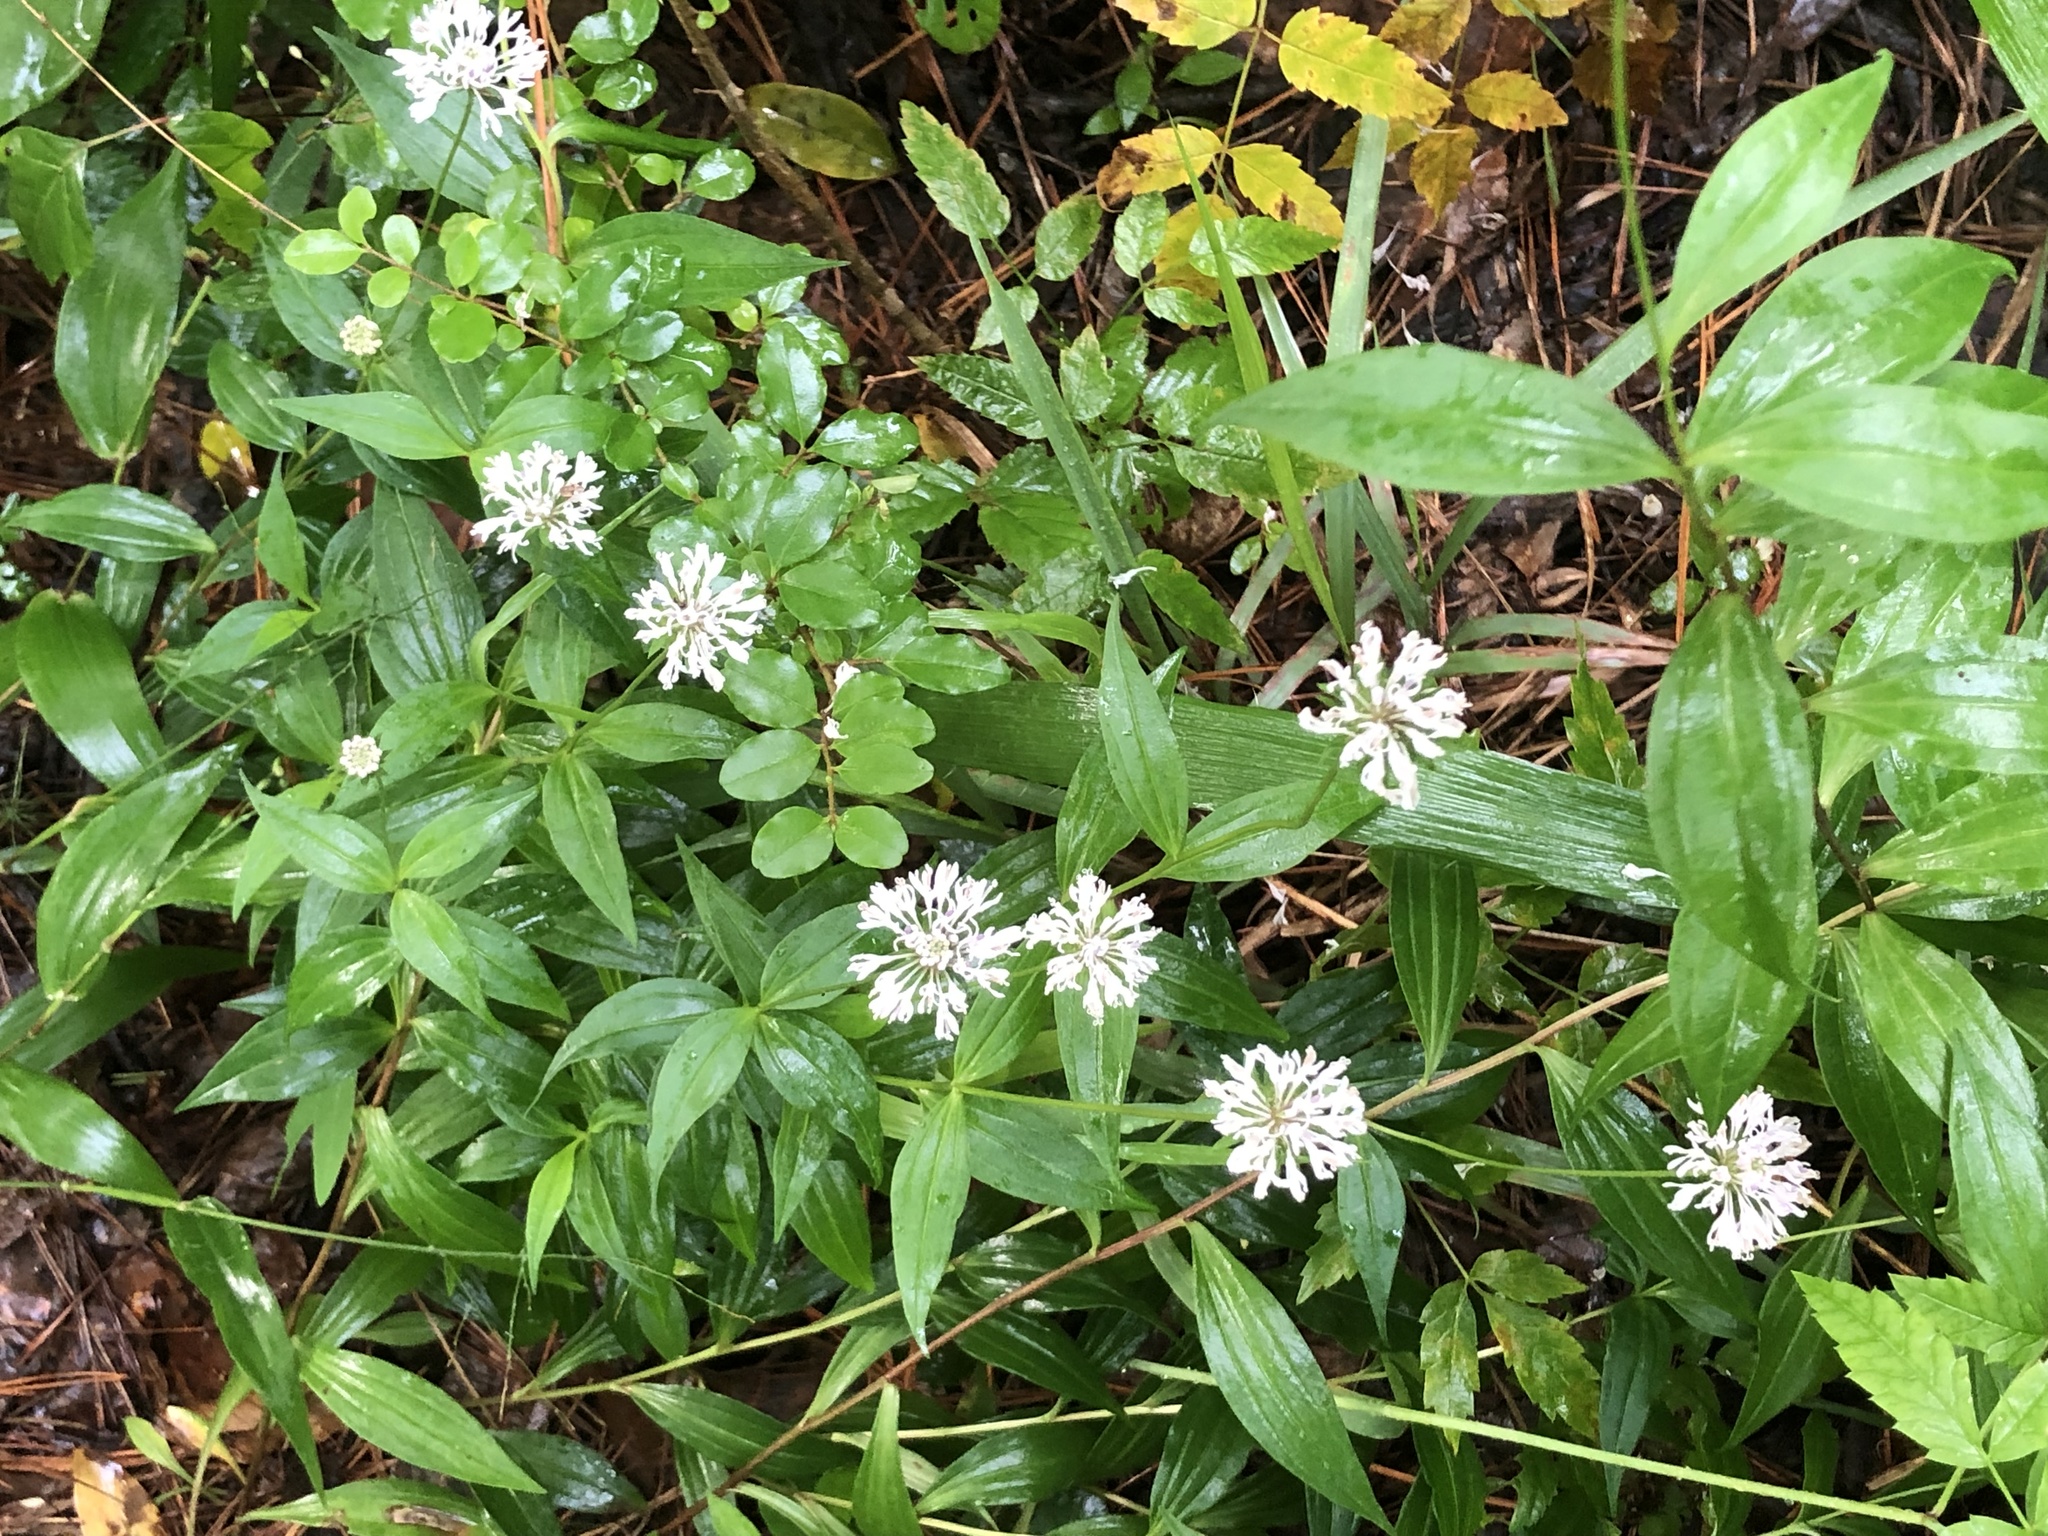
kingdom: Plantae
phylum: Tracheophyta
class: Magnoliopsida
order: Asterales
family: Asteraceae
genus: Marshallia
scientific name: Marshallia trinervia
